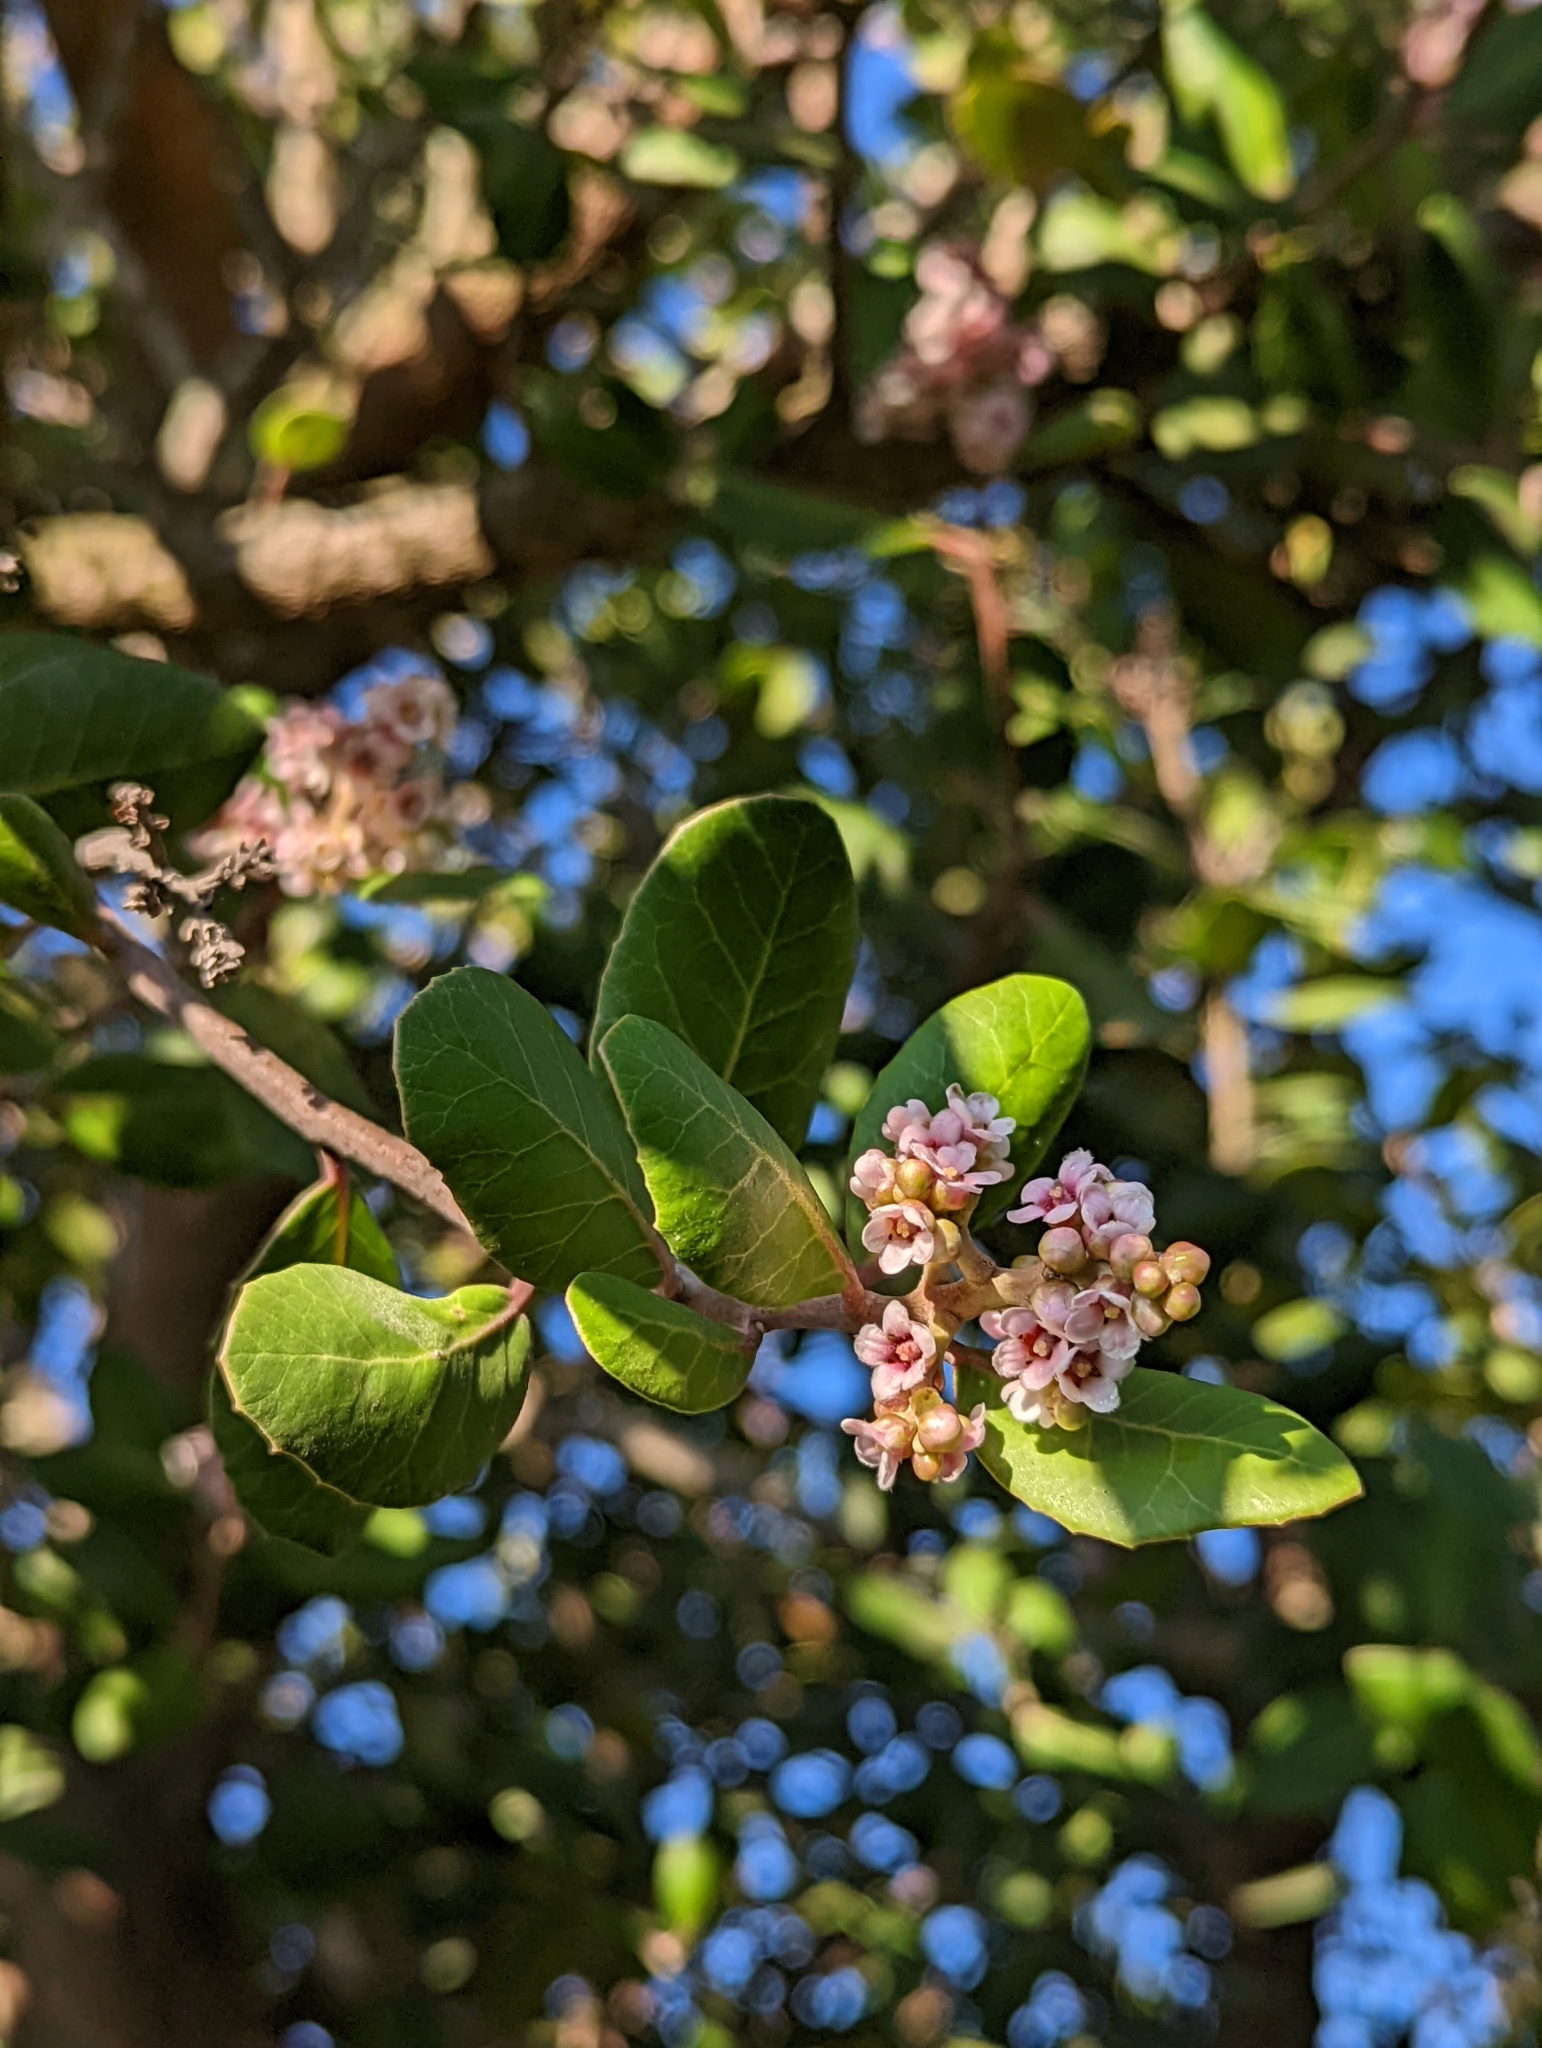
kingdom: Plantae
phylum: Tracheophyta
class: Magnoliopsida
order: Sapindales
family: Anacardiaceae
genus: Rhus
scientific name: Rhus integrifolia
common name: Lemonade sumac
